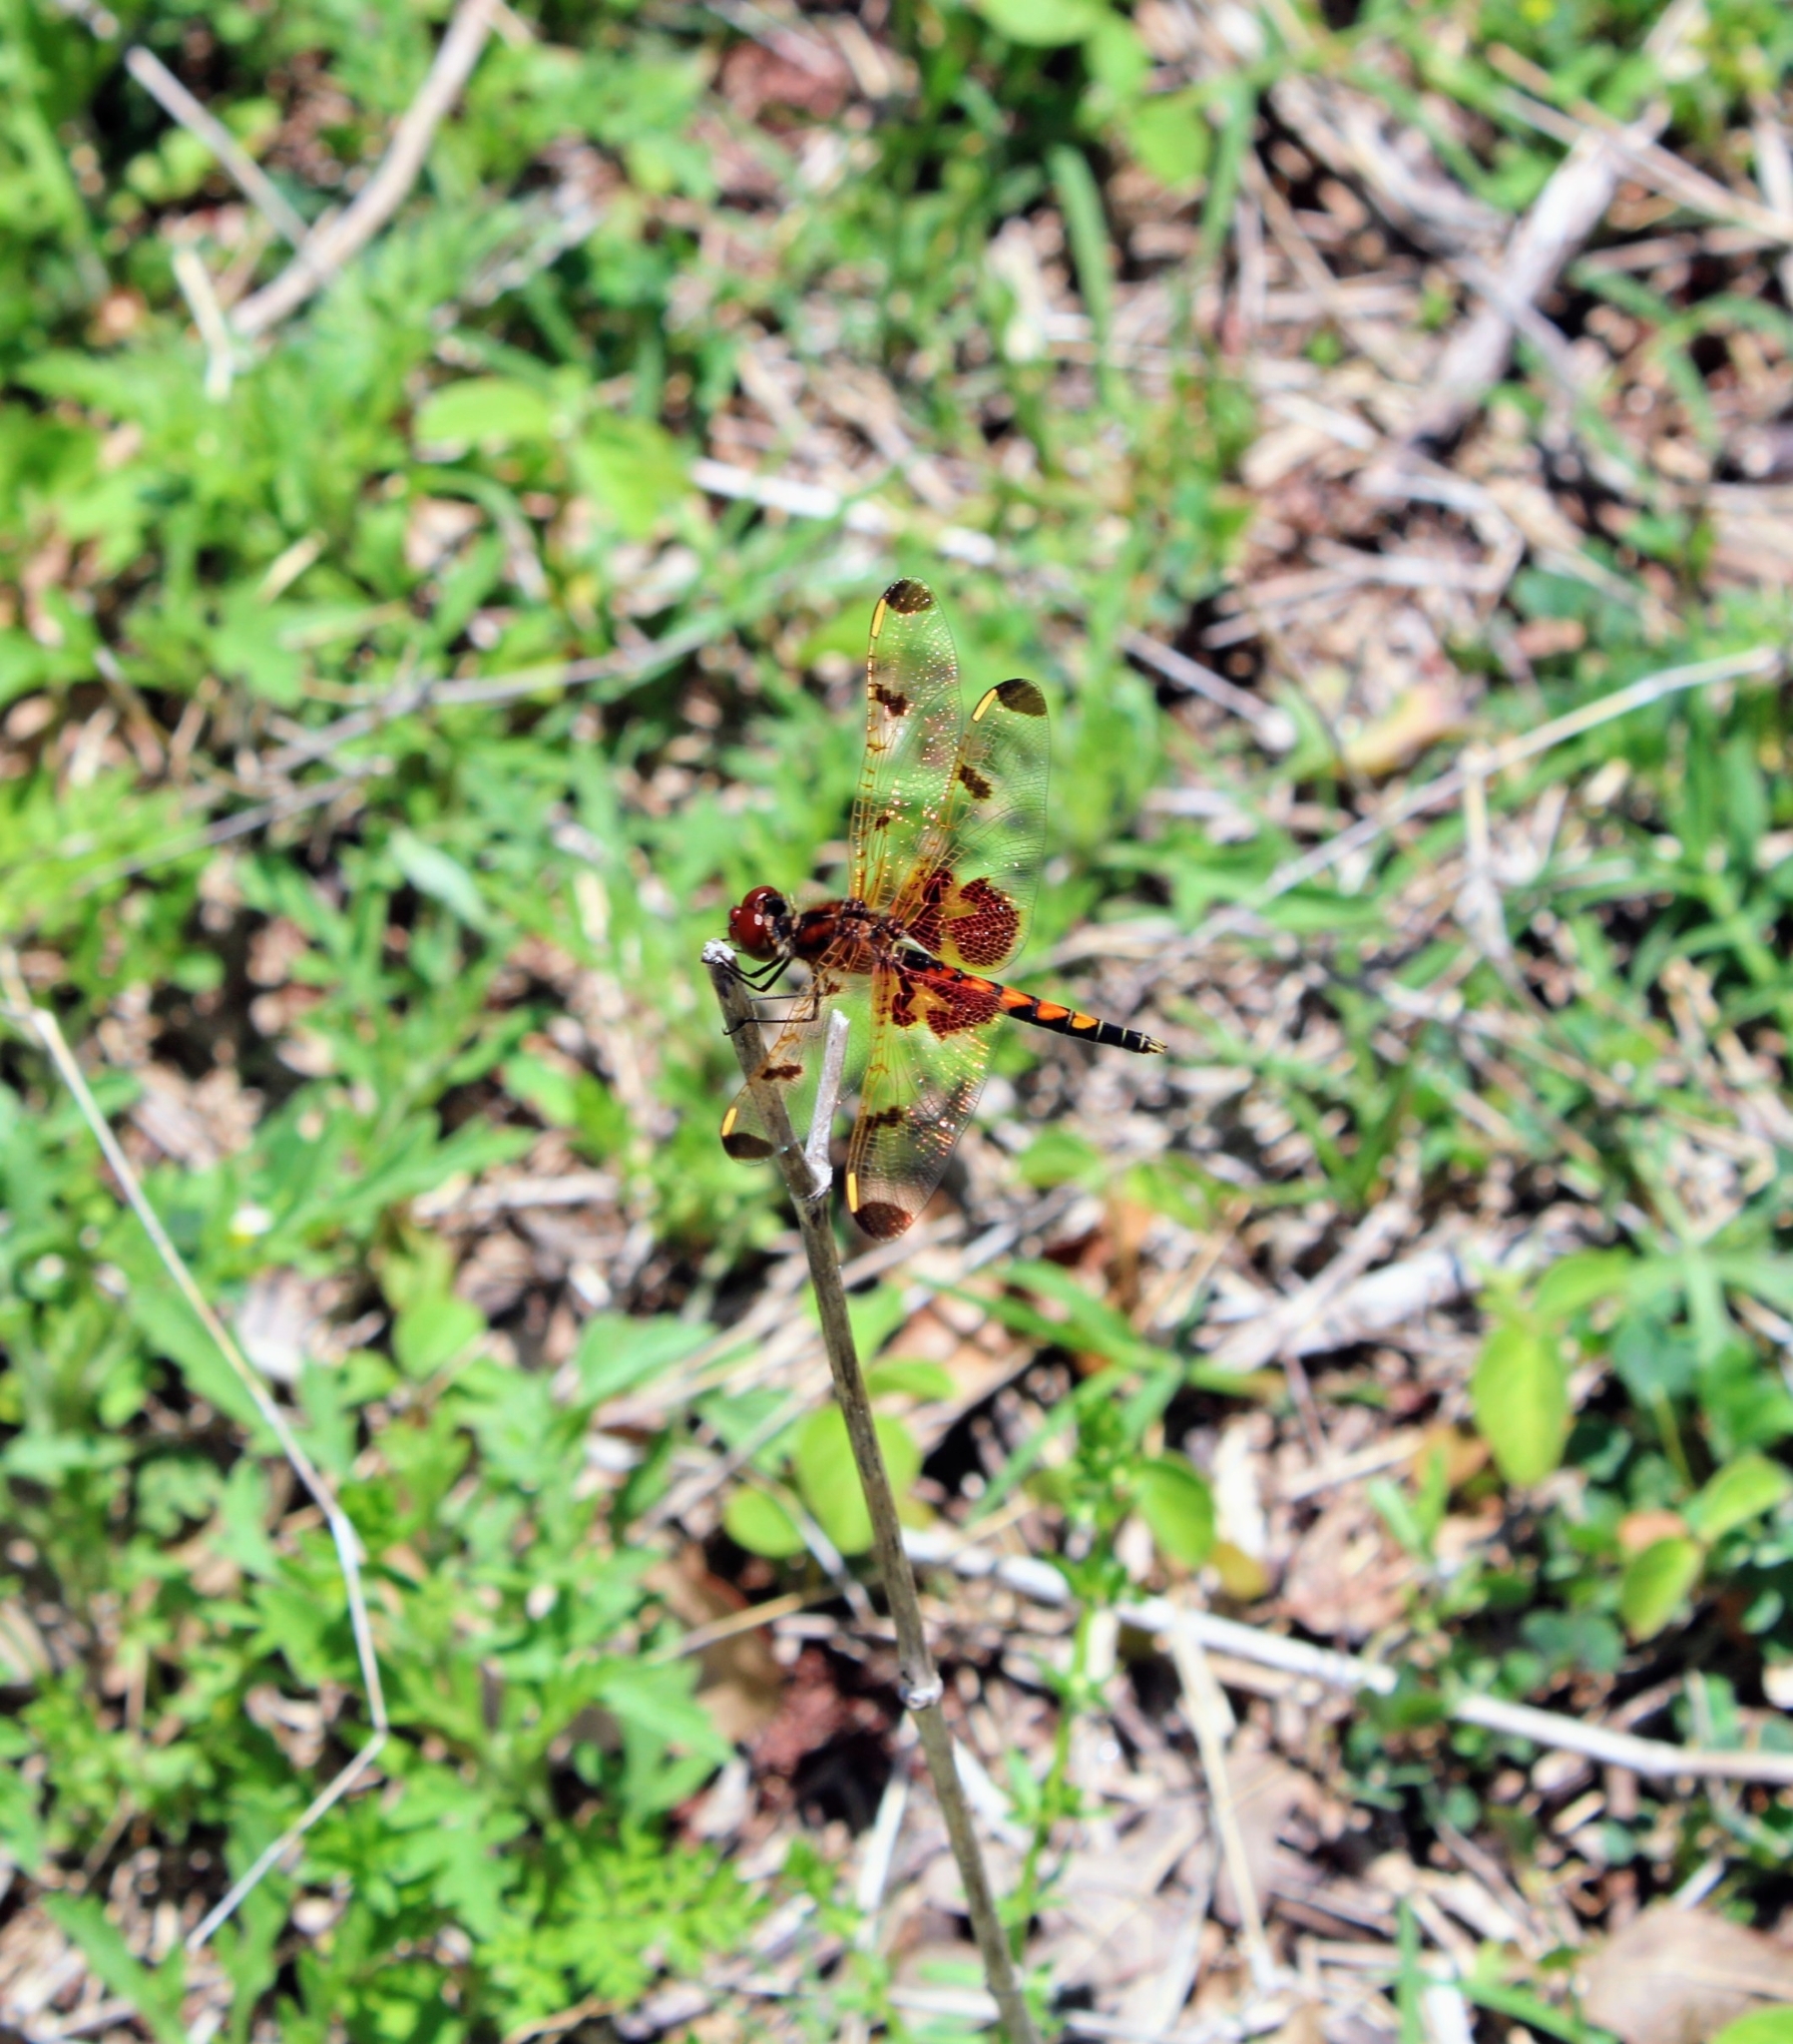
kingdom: Animalia
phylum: Arthropoda
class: Insecta
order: Odonata
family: Libellulidae
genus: Celithemis
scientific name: Celithemis elisa
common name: Calico pennant
